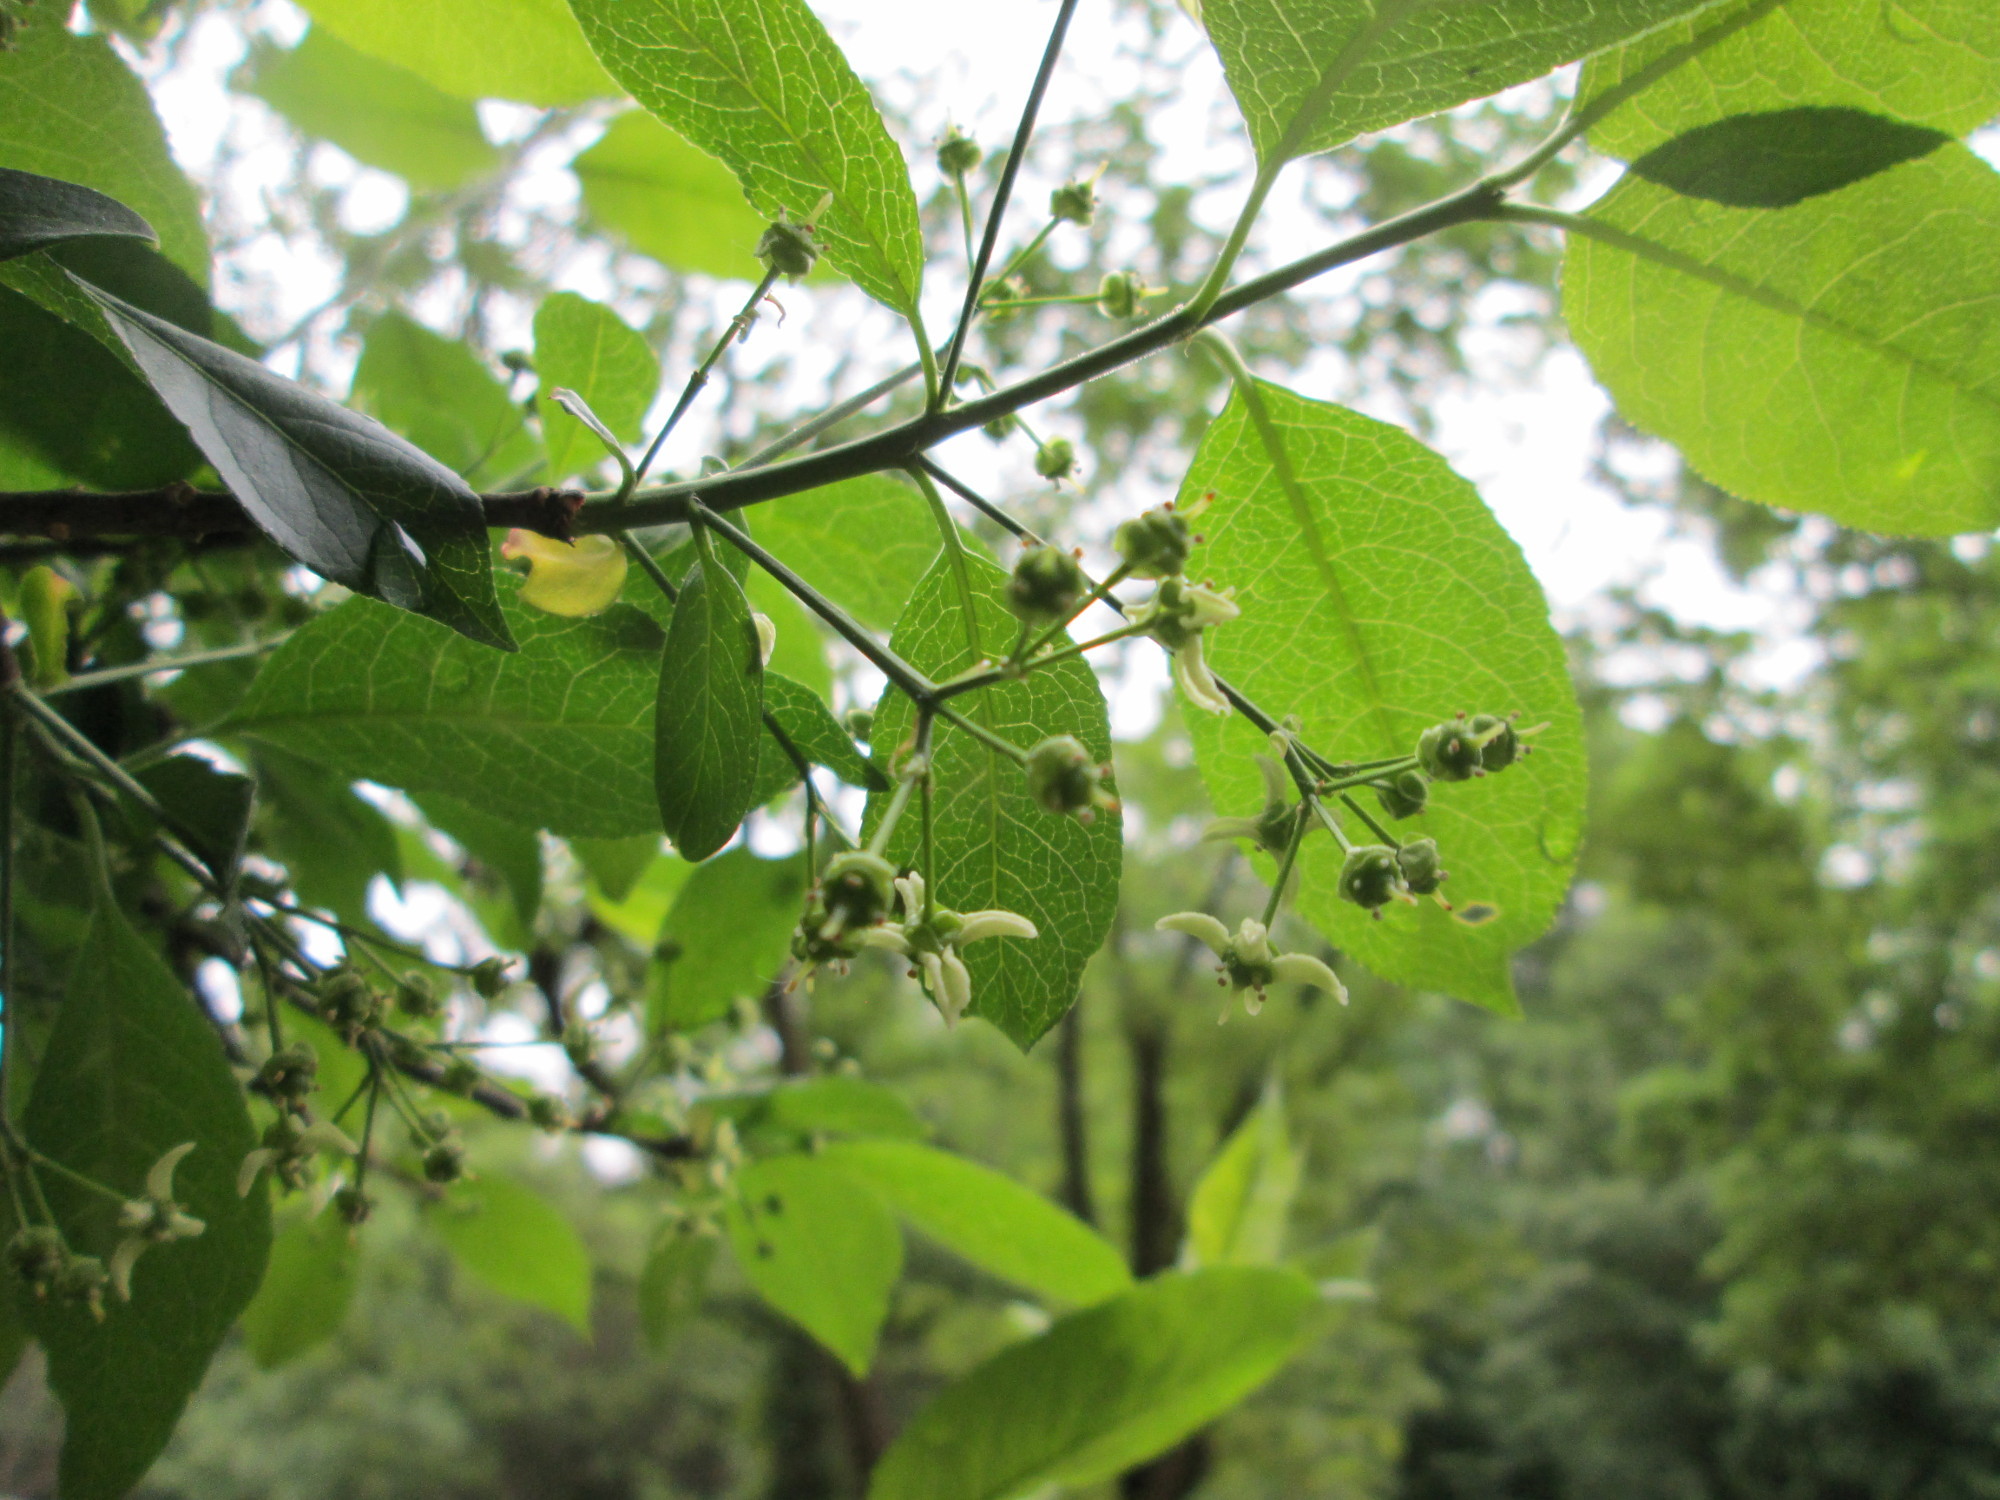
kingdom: Plantae
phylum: Tracheophyta
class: Magnoliopsida
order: Celastrales
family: Celastraceae
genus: Euonymus
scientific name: Euonymus europaeus
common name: Spindle
